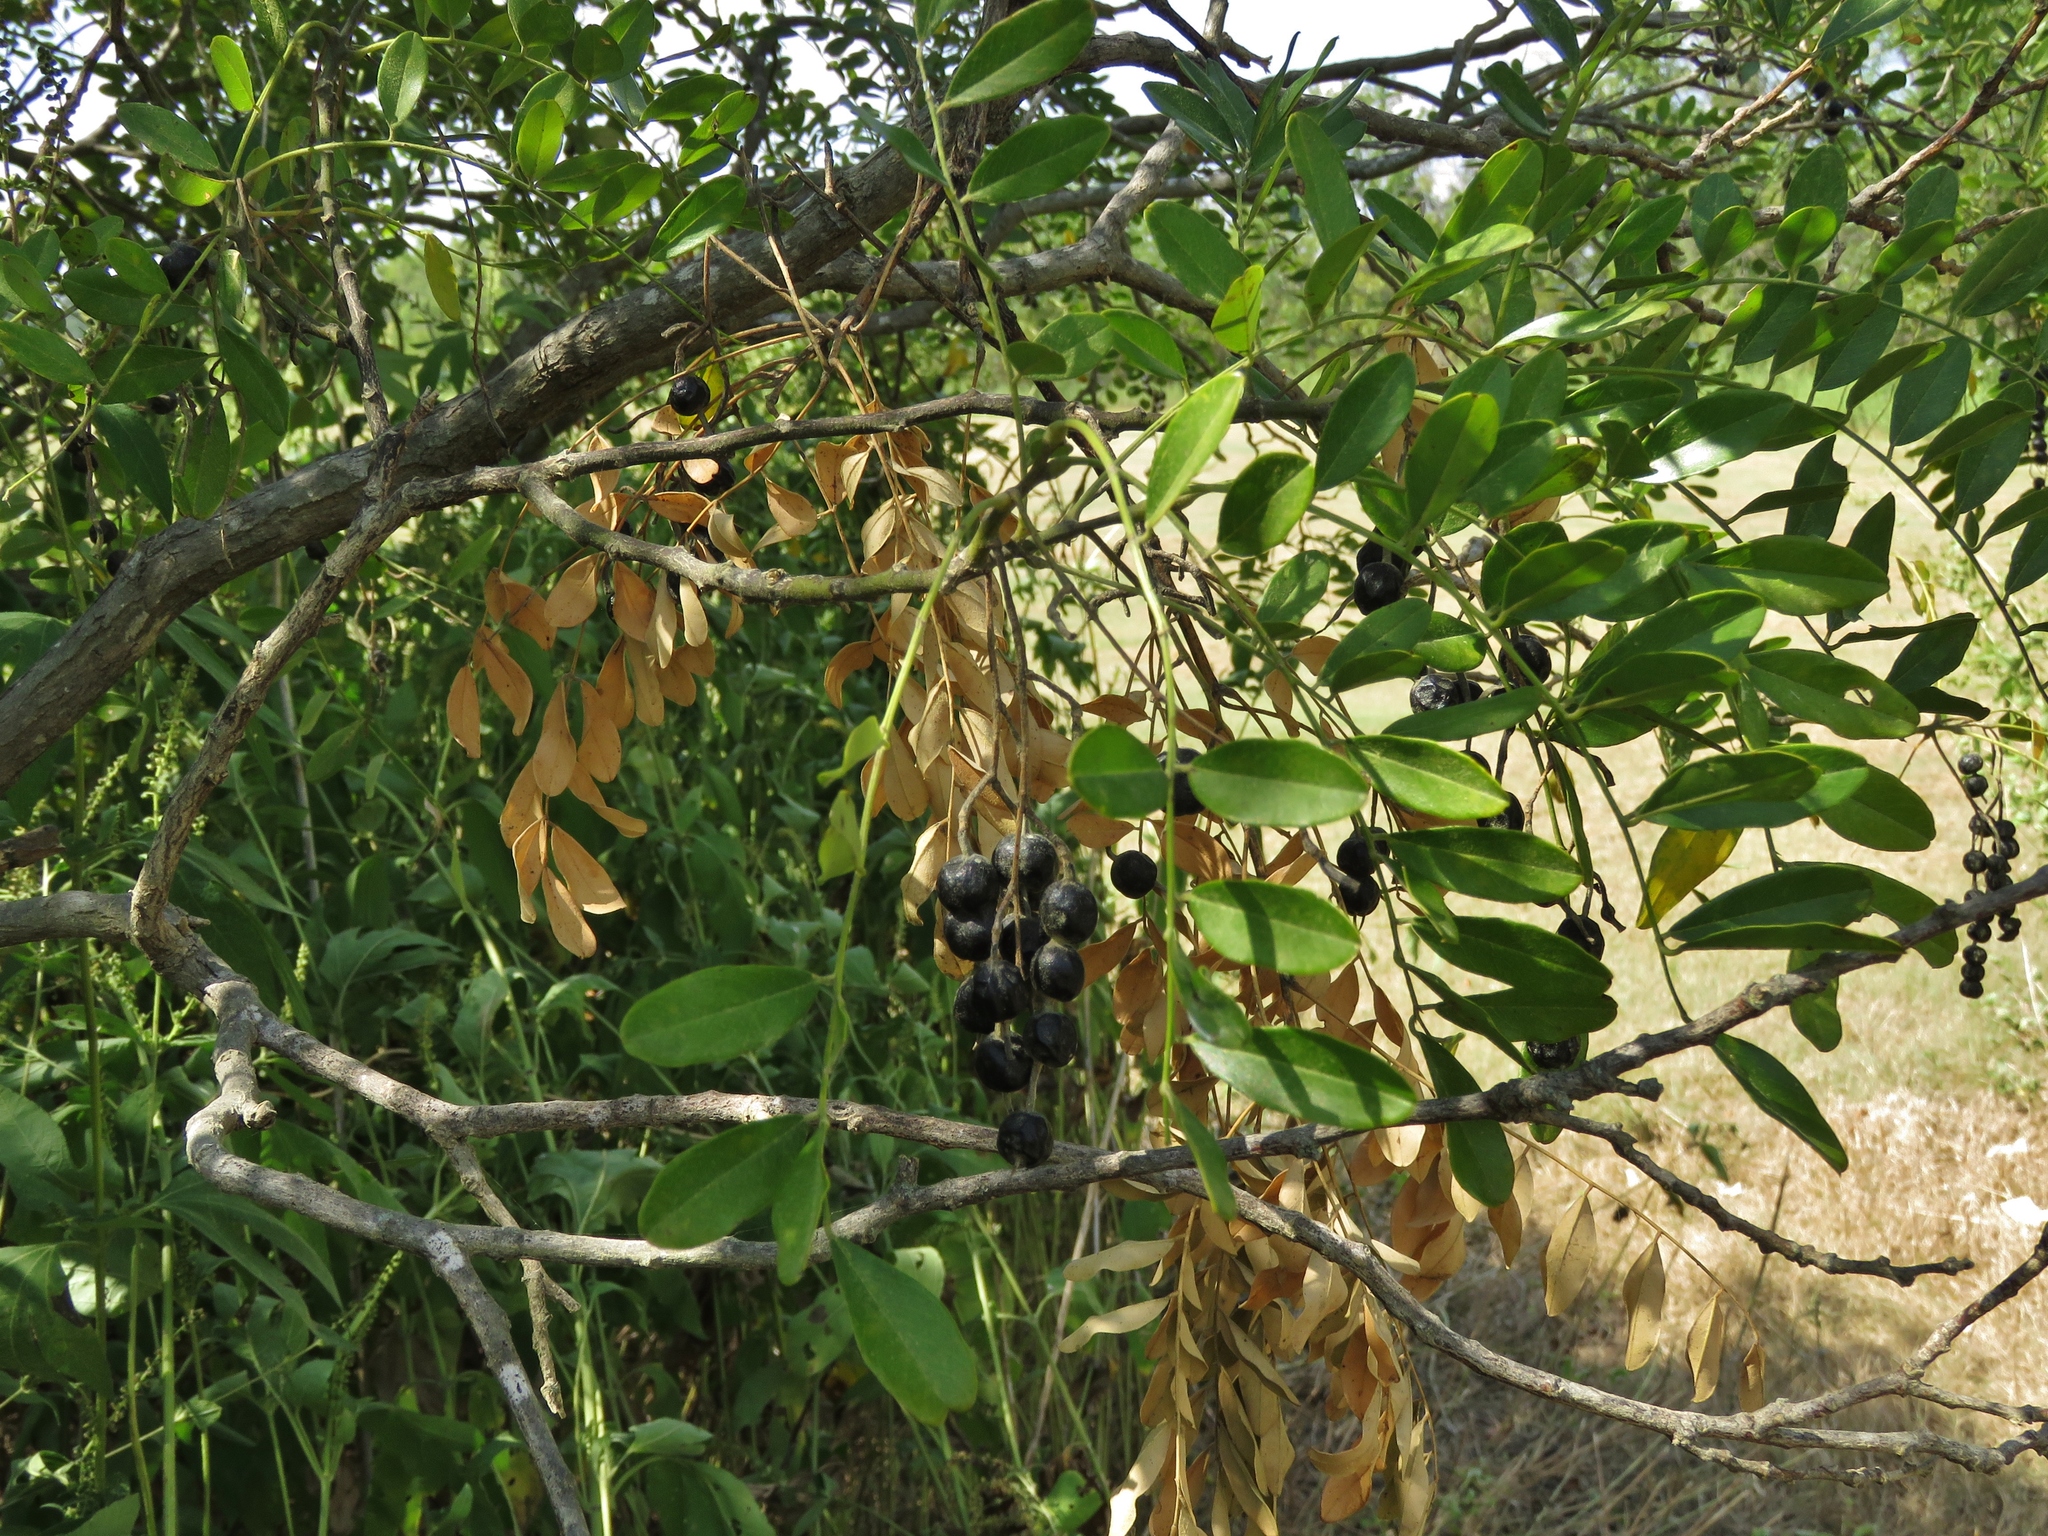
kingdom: Plantae
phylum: Tracheophyta
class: Magnoliopsida
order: Fabales
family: Fabaceae
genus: Styphnolobium
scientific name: Styphnolobium affine
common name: Texas sophora
